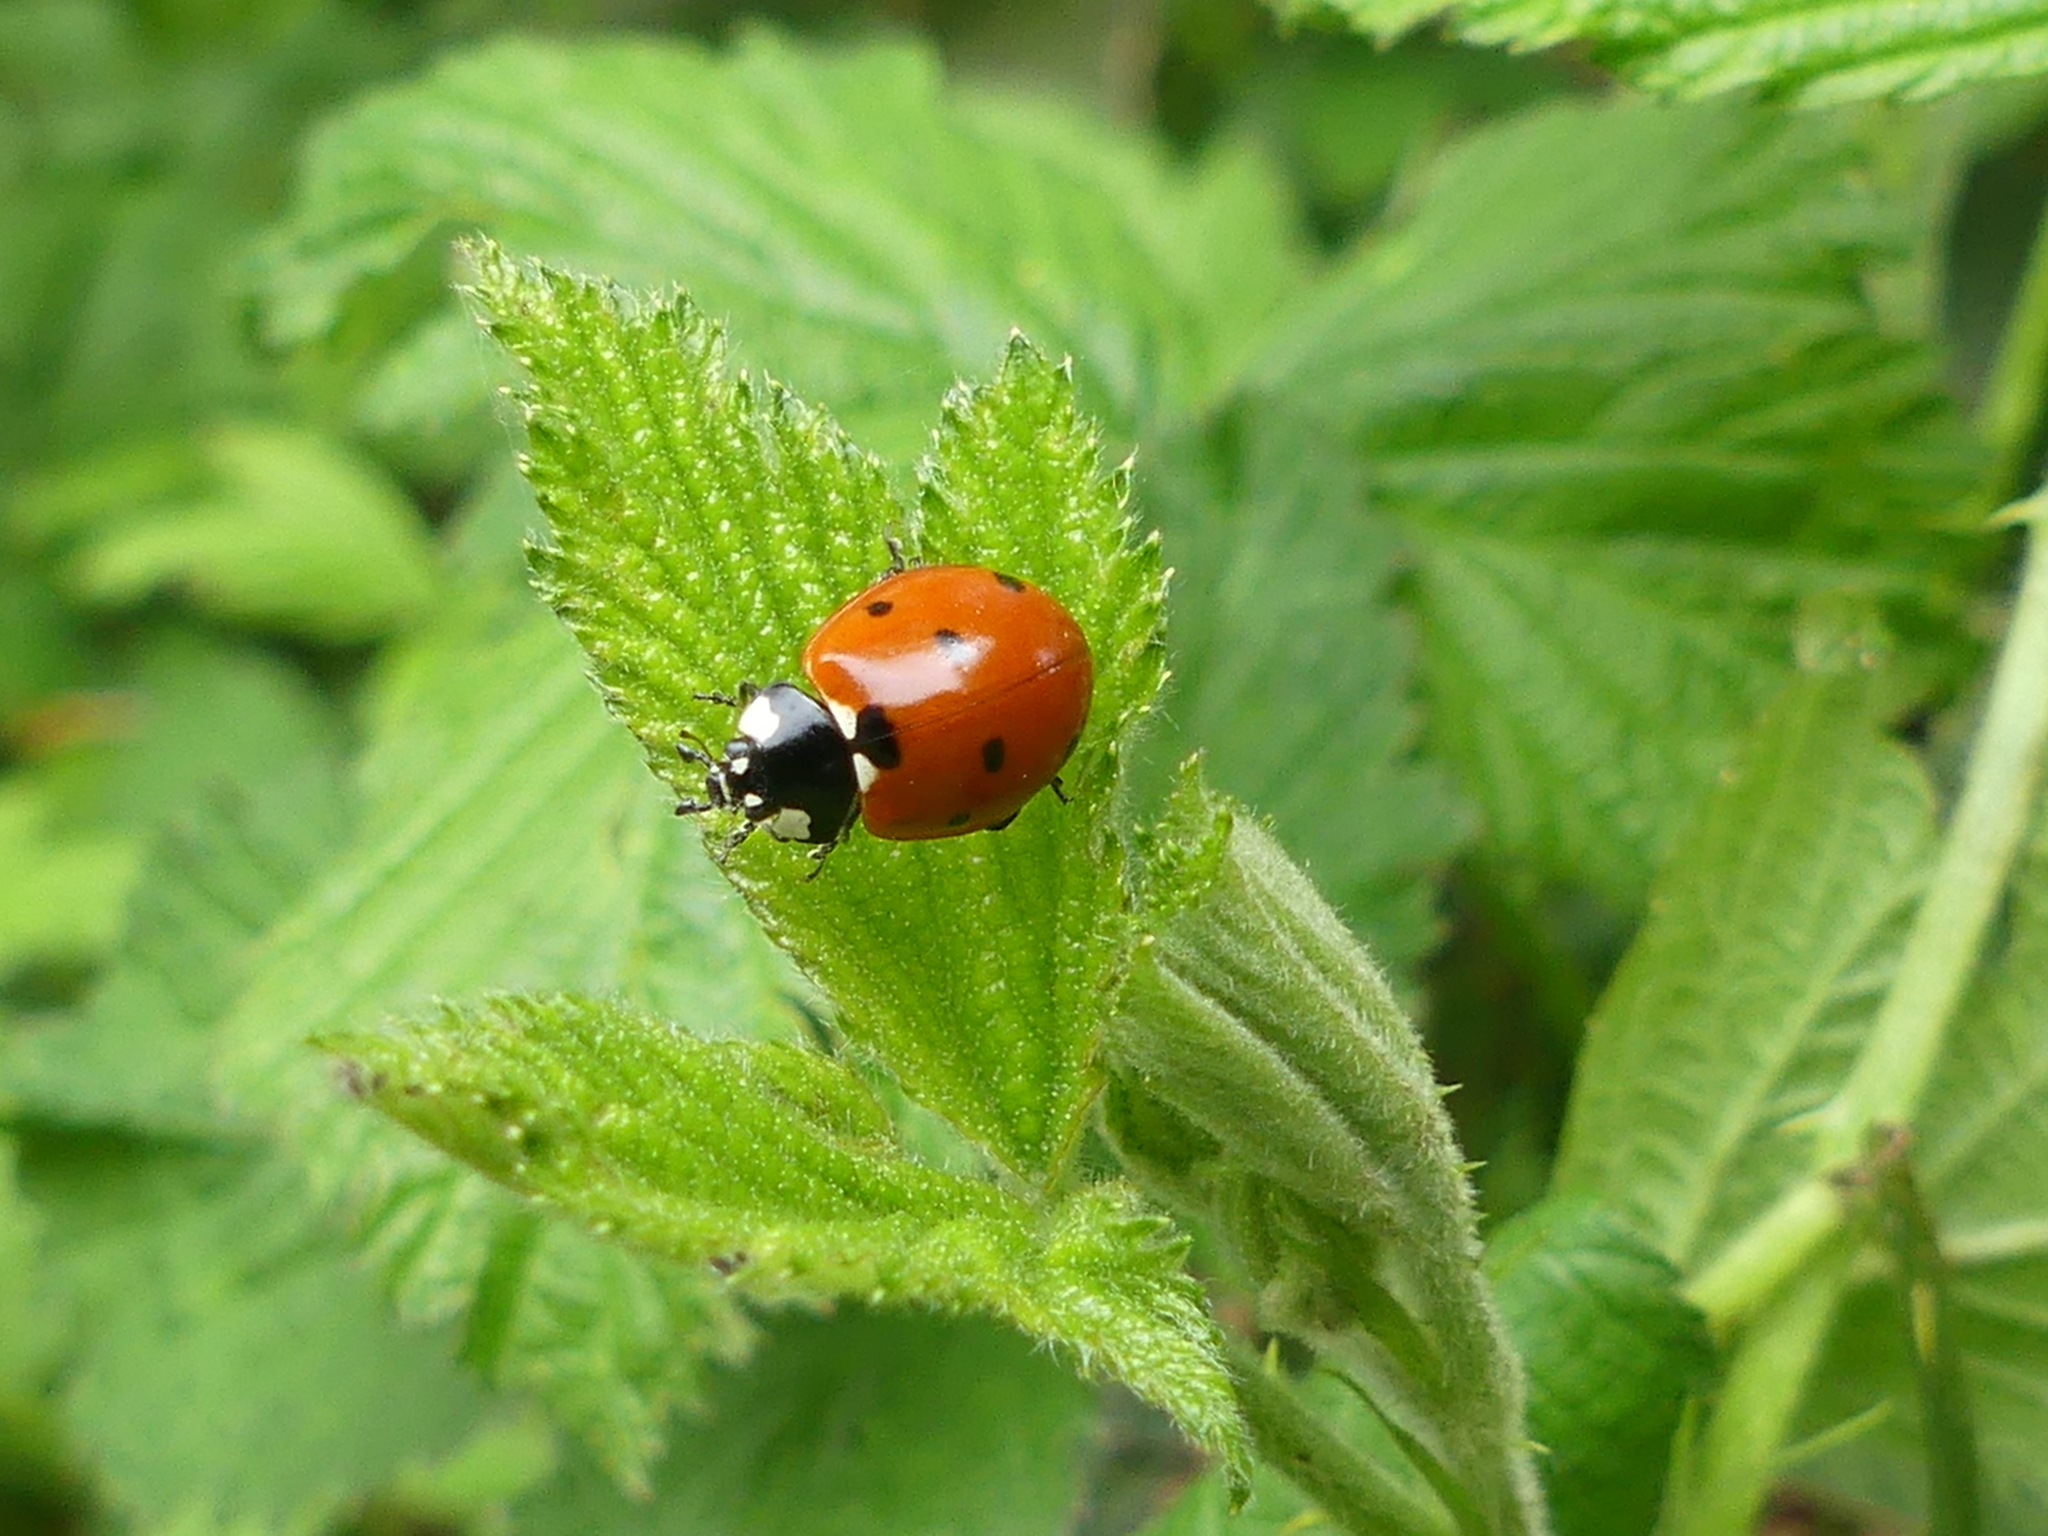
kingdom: Animalia
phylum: Arthropoda
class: Insecta
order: Coleoptera
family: Coccinellidae
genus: Coccinella
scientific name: Coccinella septempunctata
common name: Sevenspotted lady beetle
